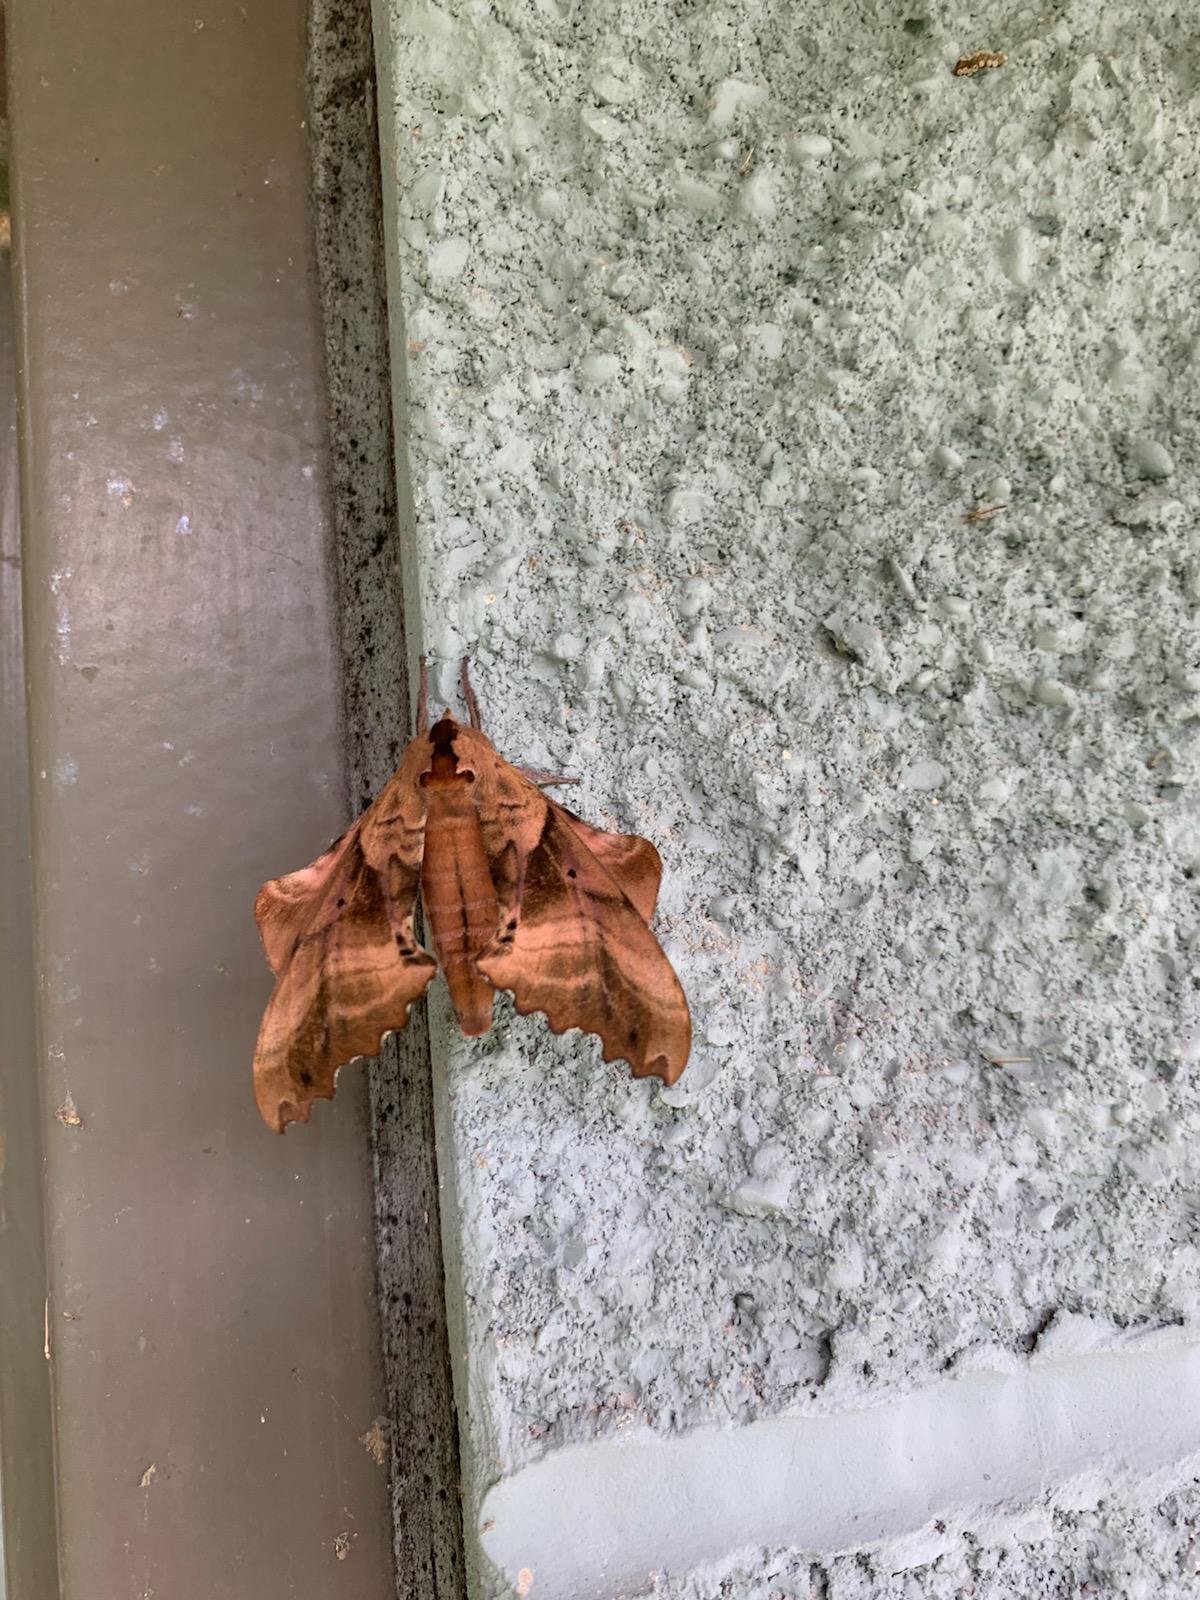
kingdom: Animalia
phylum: Arthropoda
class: Insecta
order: Lepidoptera
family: Sphingidae
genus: Paonias
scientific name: Paonias excaecata
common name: Blind-eyed sphinx
